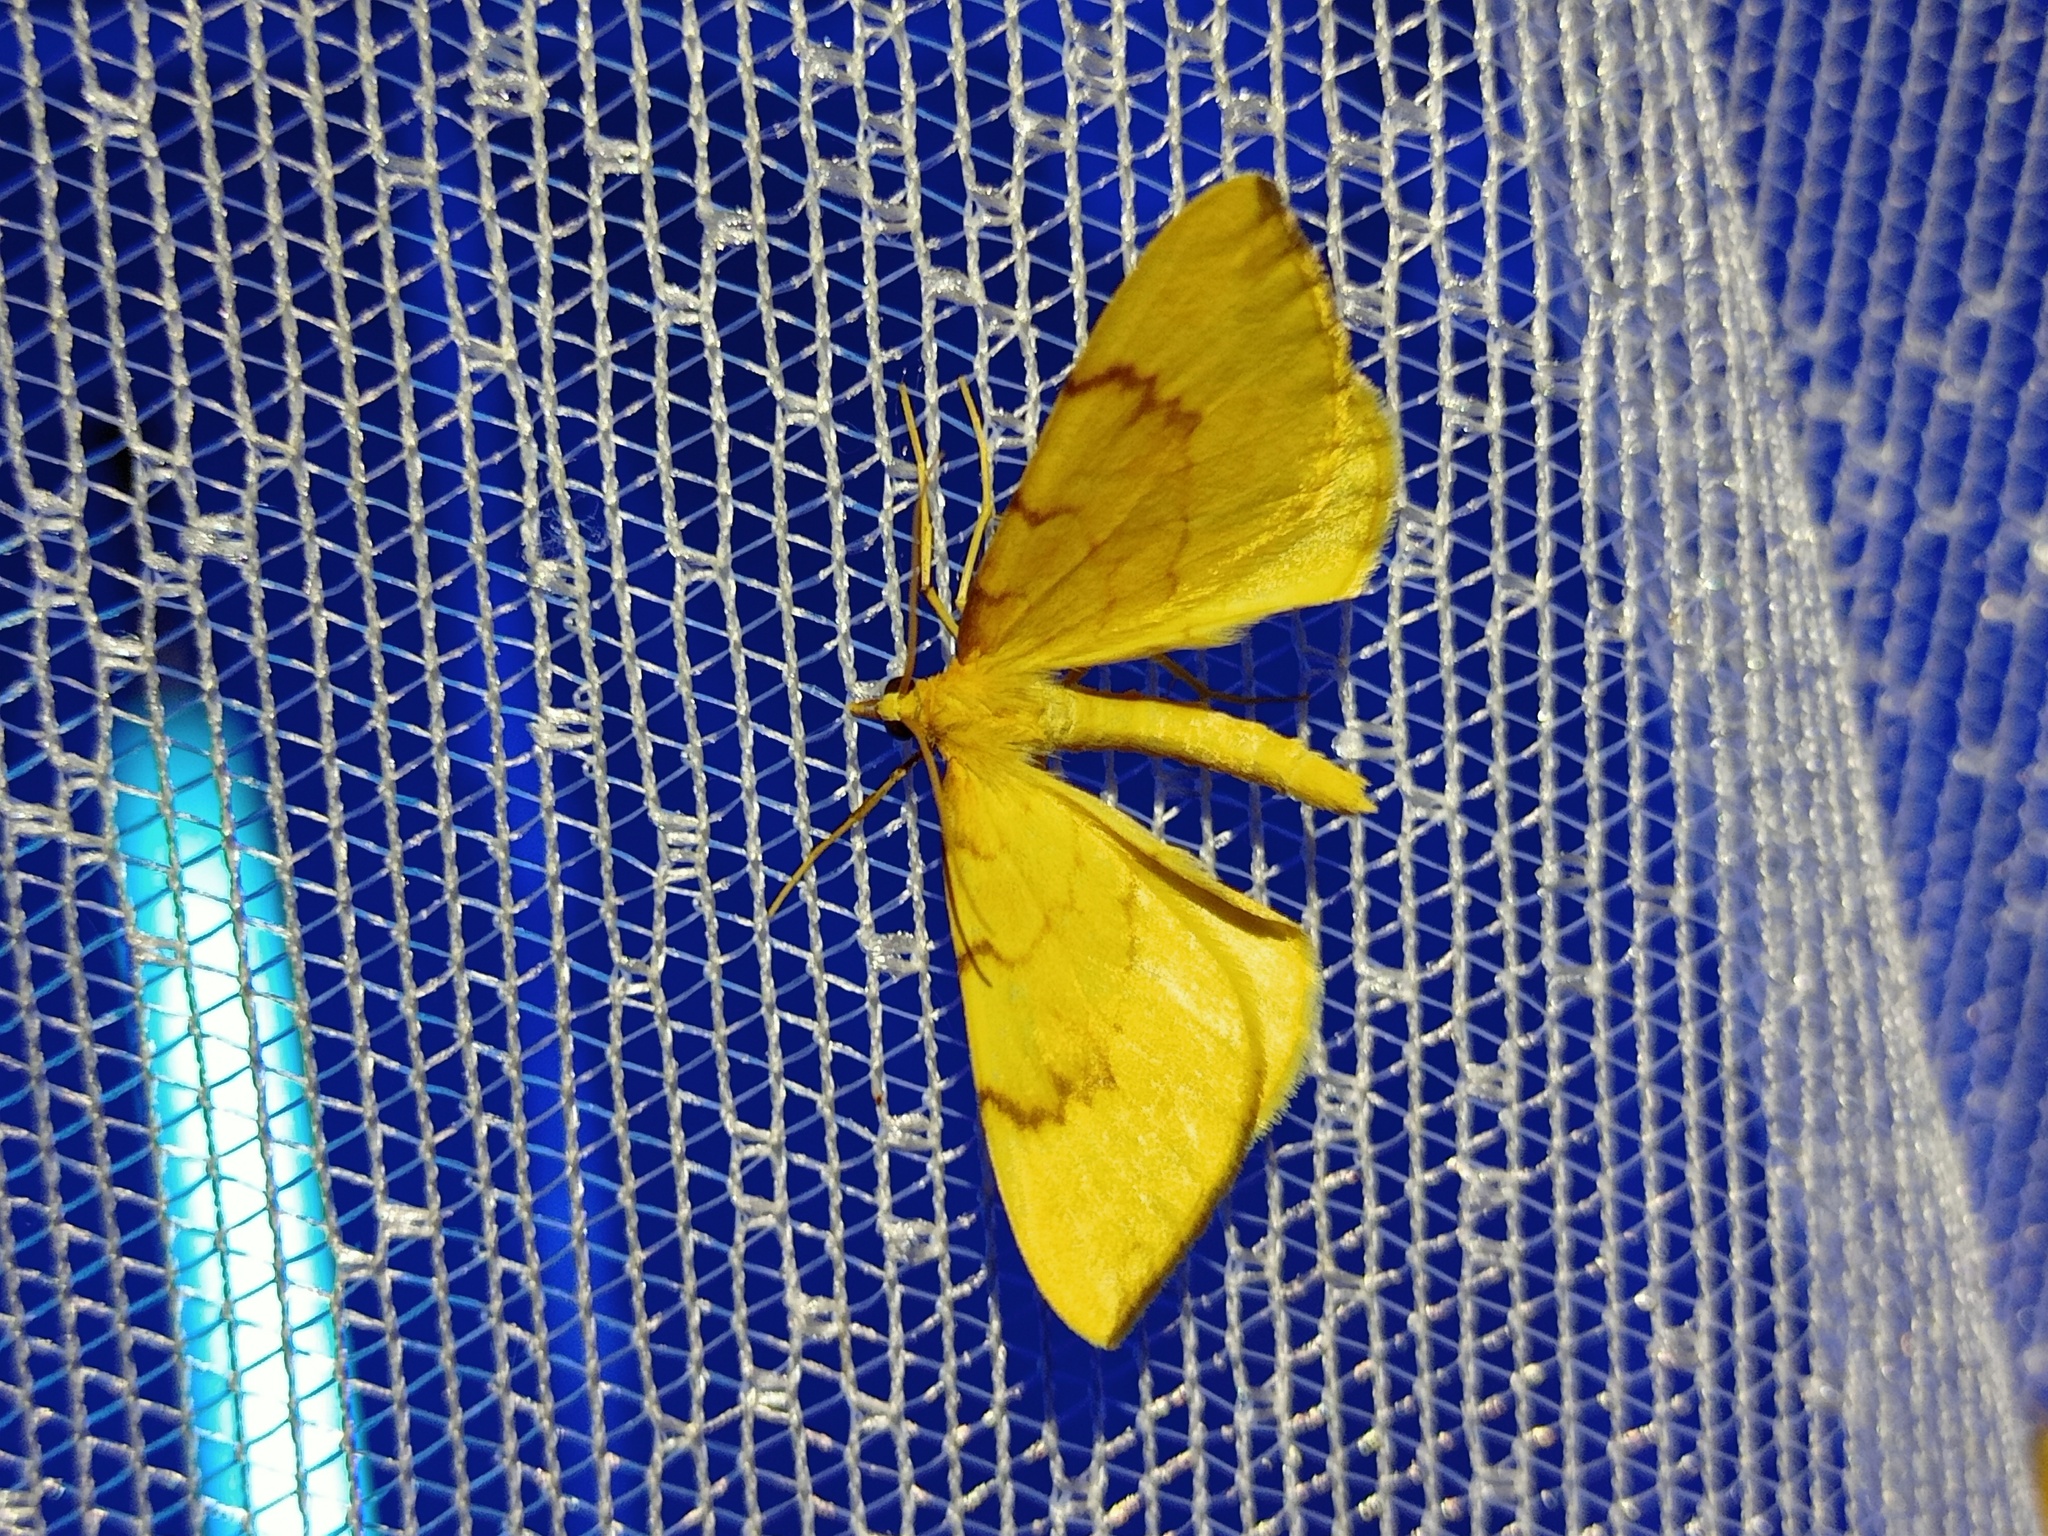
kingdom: Animalia
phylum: Arthropoda
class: Insecta
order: Lepidoptera
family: Geometridae
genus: Eulithis
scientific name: Eulithis pyraliata
